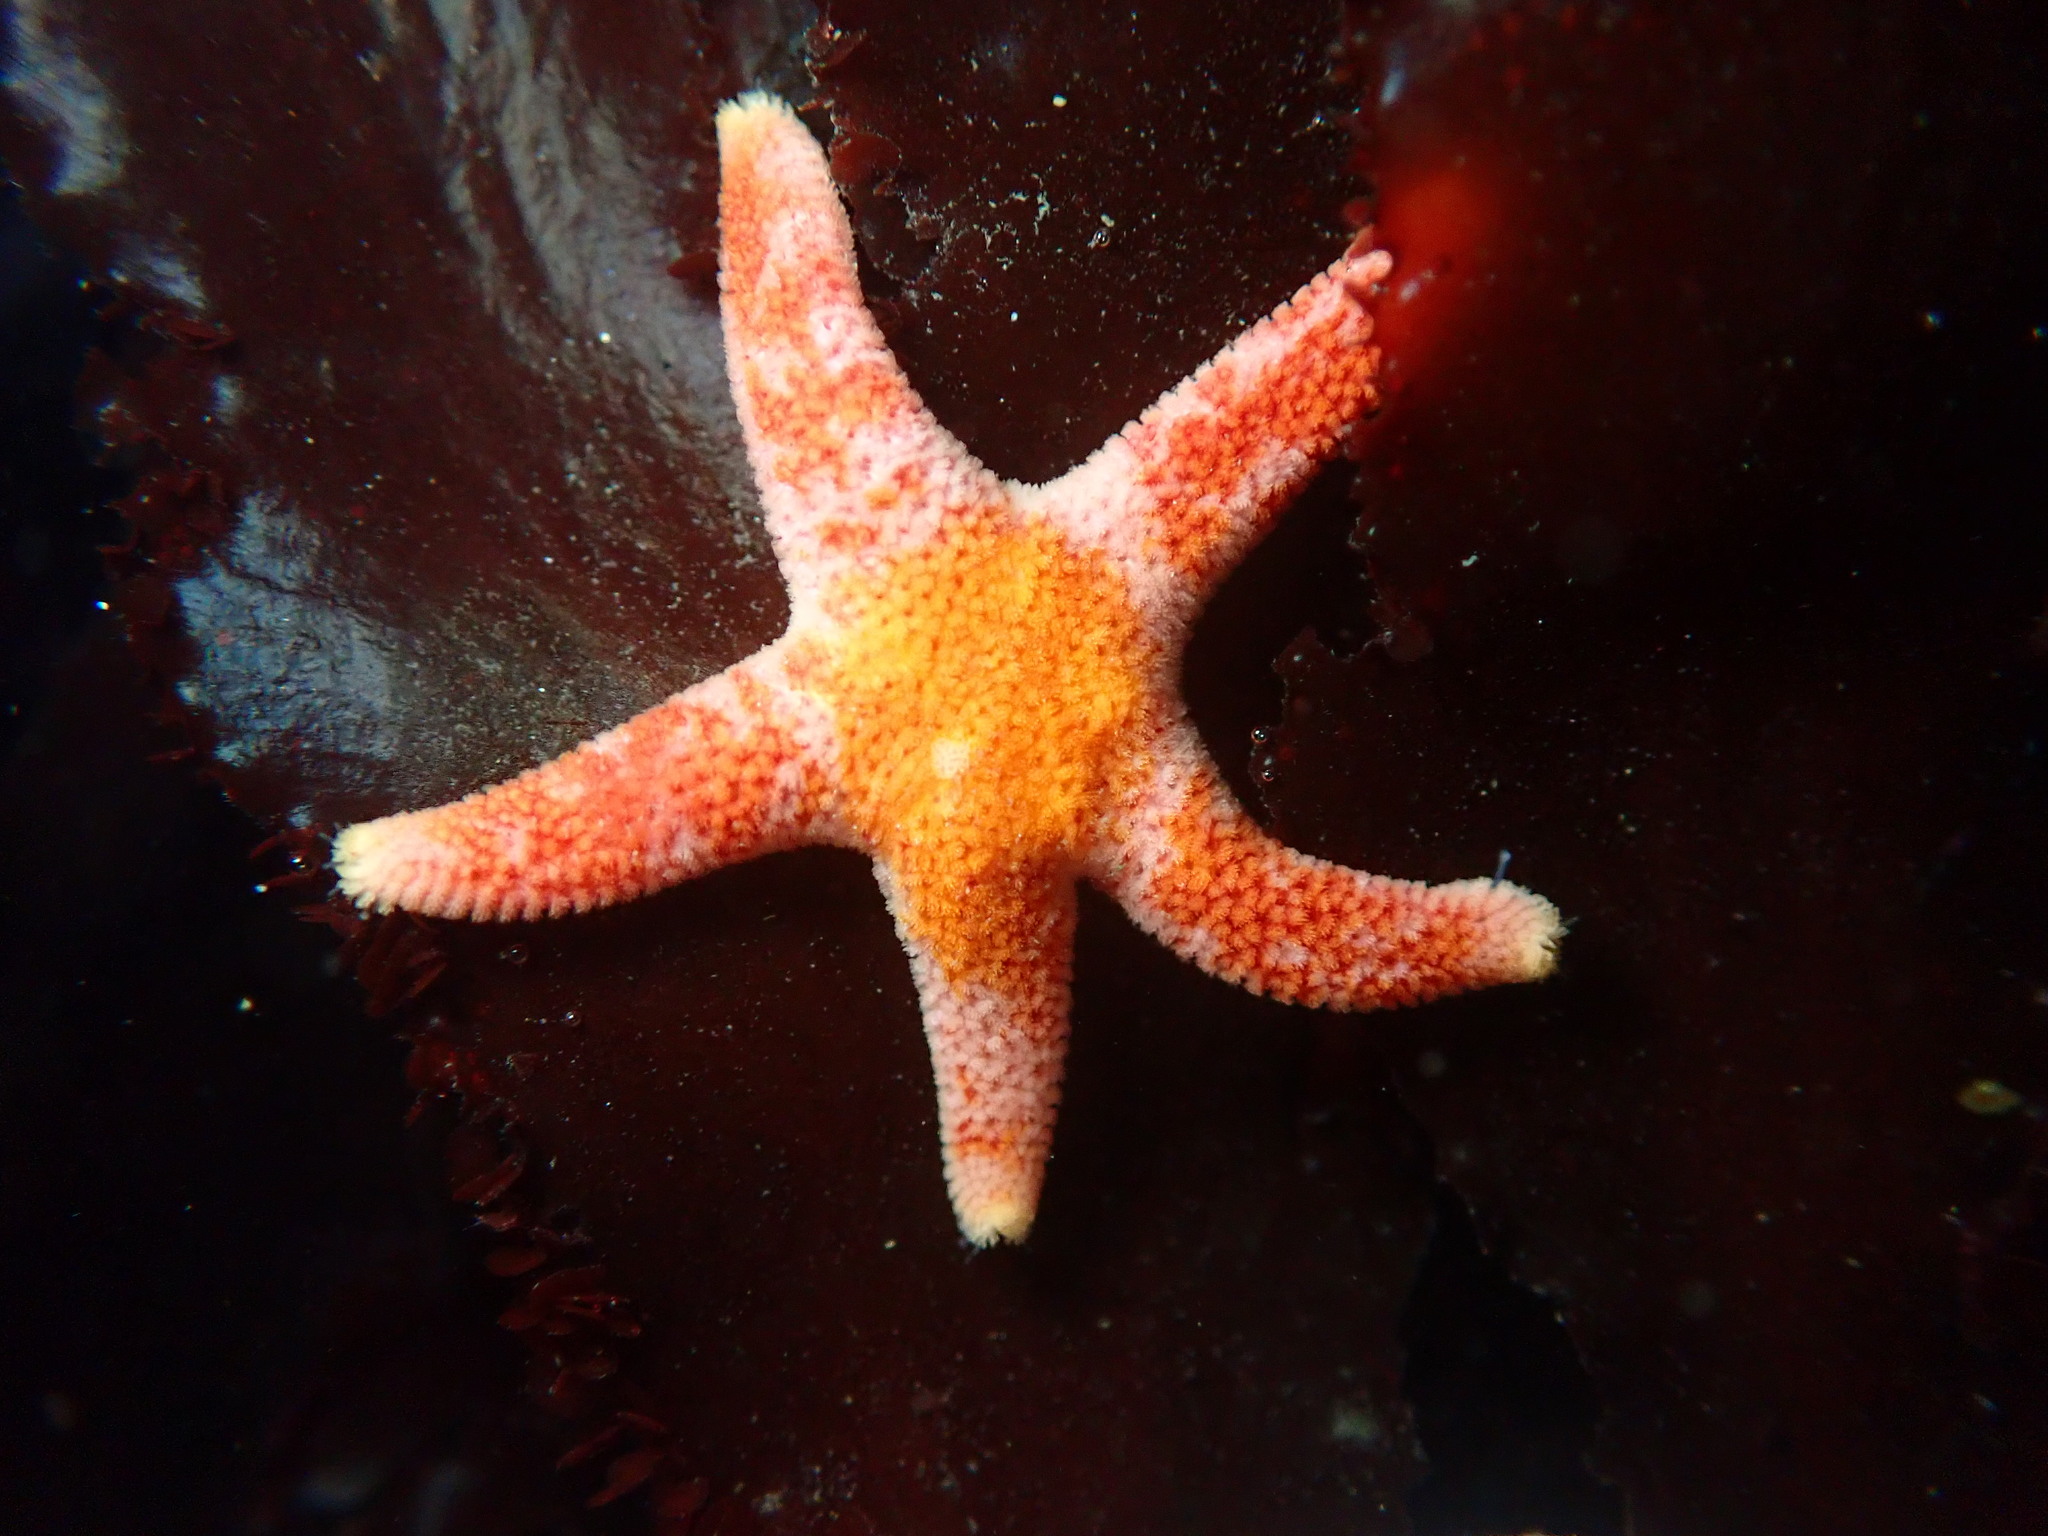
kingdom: Animalia
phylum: Echinodermata
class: Asteroidea
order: Spinulosida
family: Echinasteridae
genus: Henricia
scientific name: Henricia pumila
